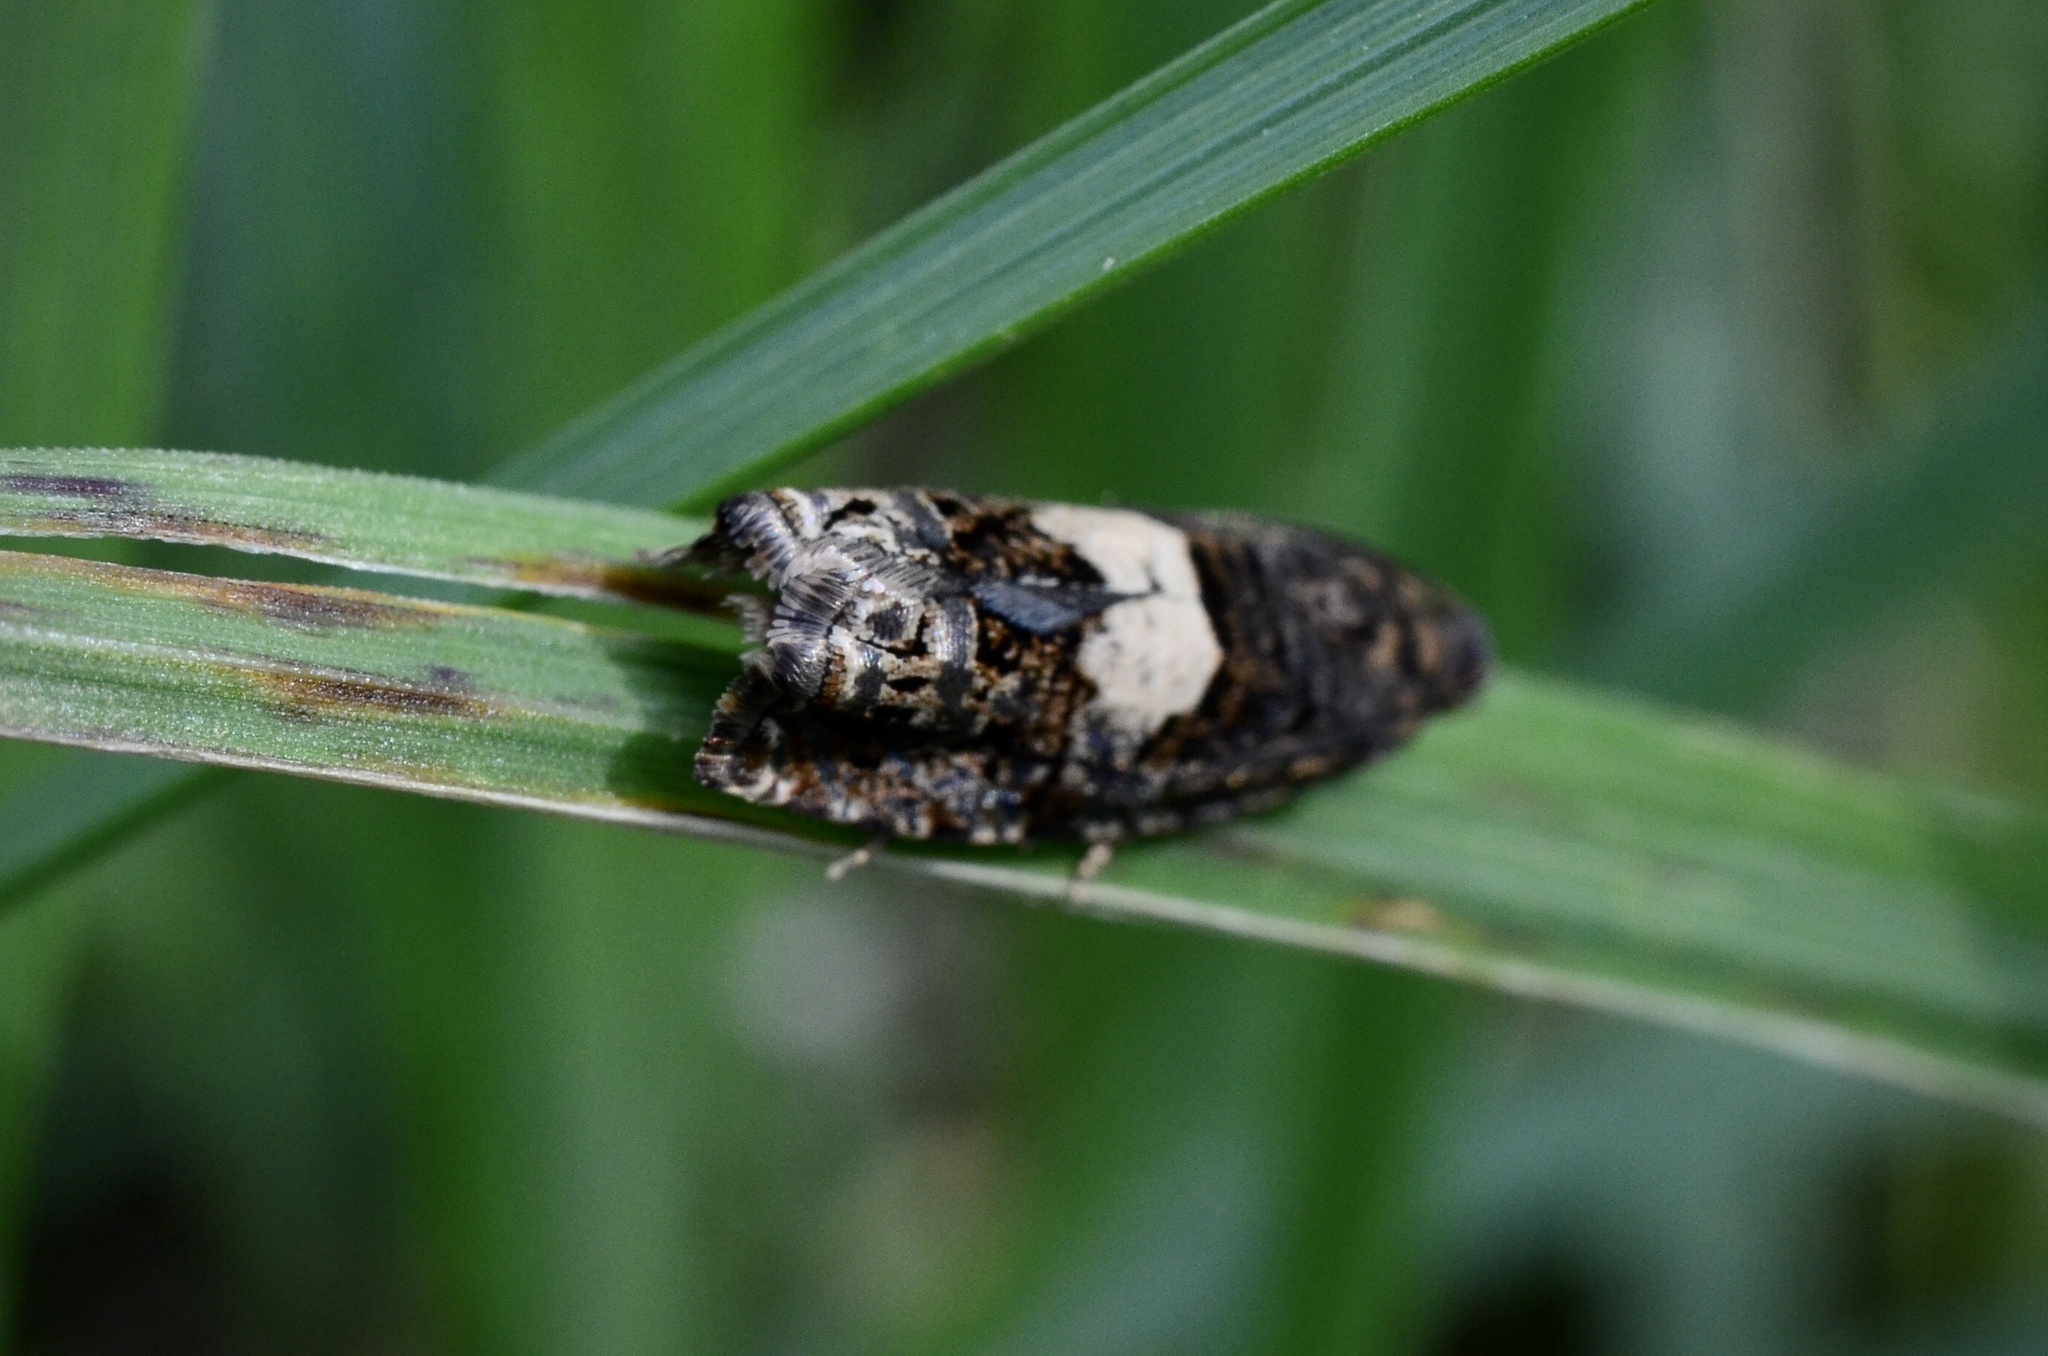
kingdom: Animalia
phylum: Arthropoda
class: Insecta
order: Lepidoptera
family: Tortricidae
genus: Epiblema
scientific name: Epiblema
